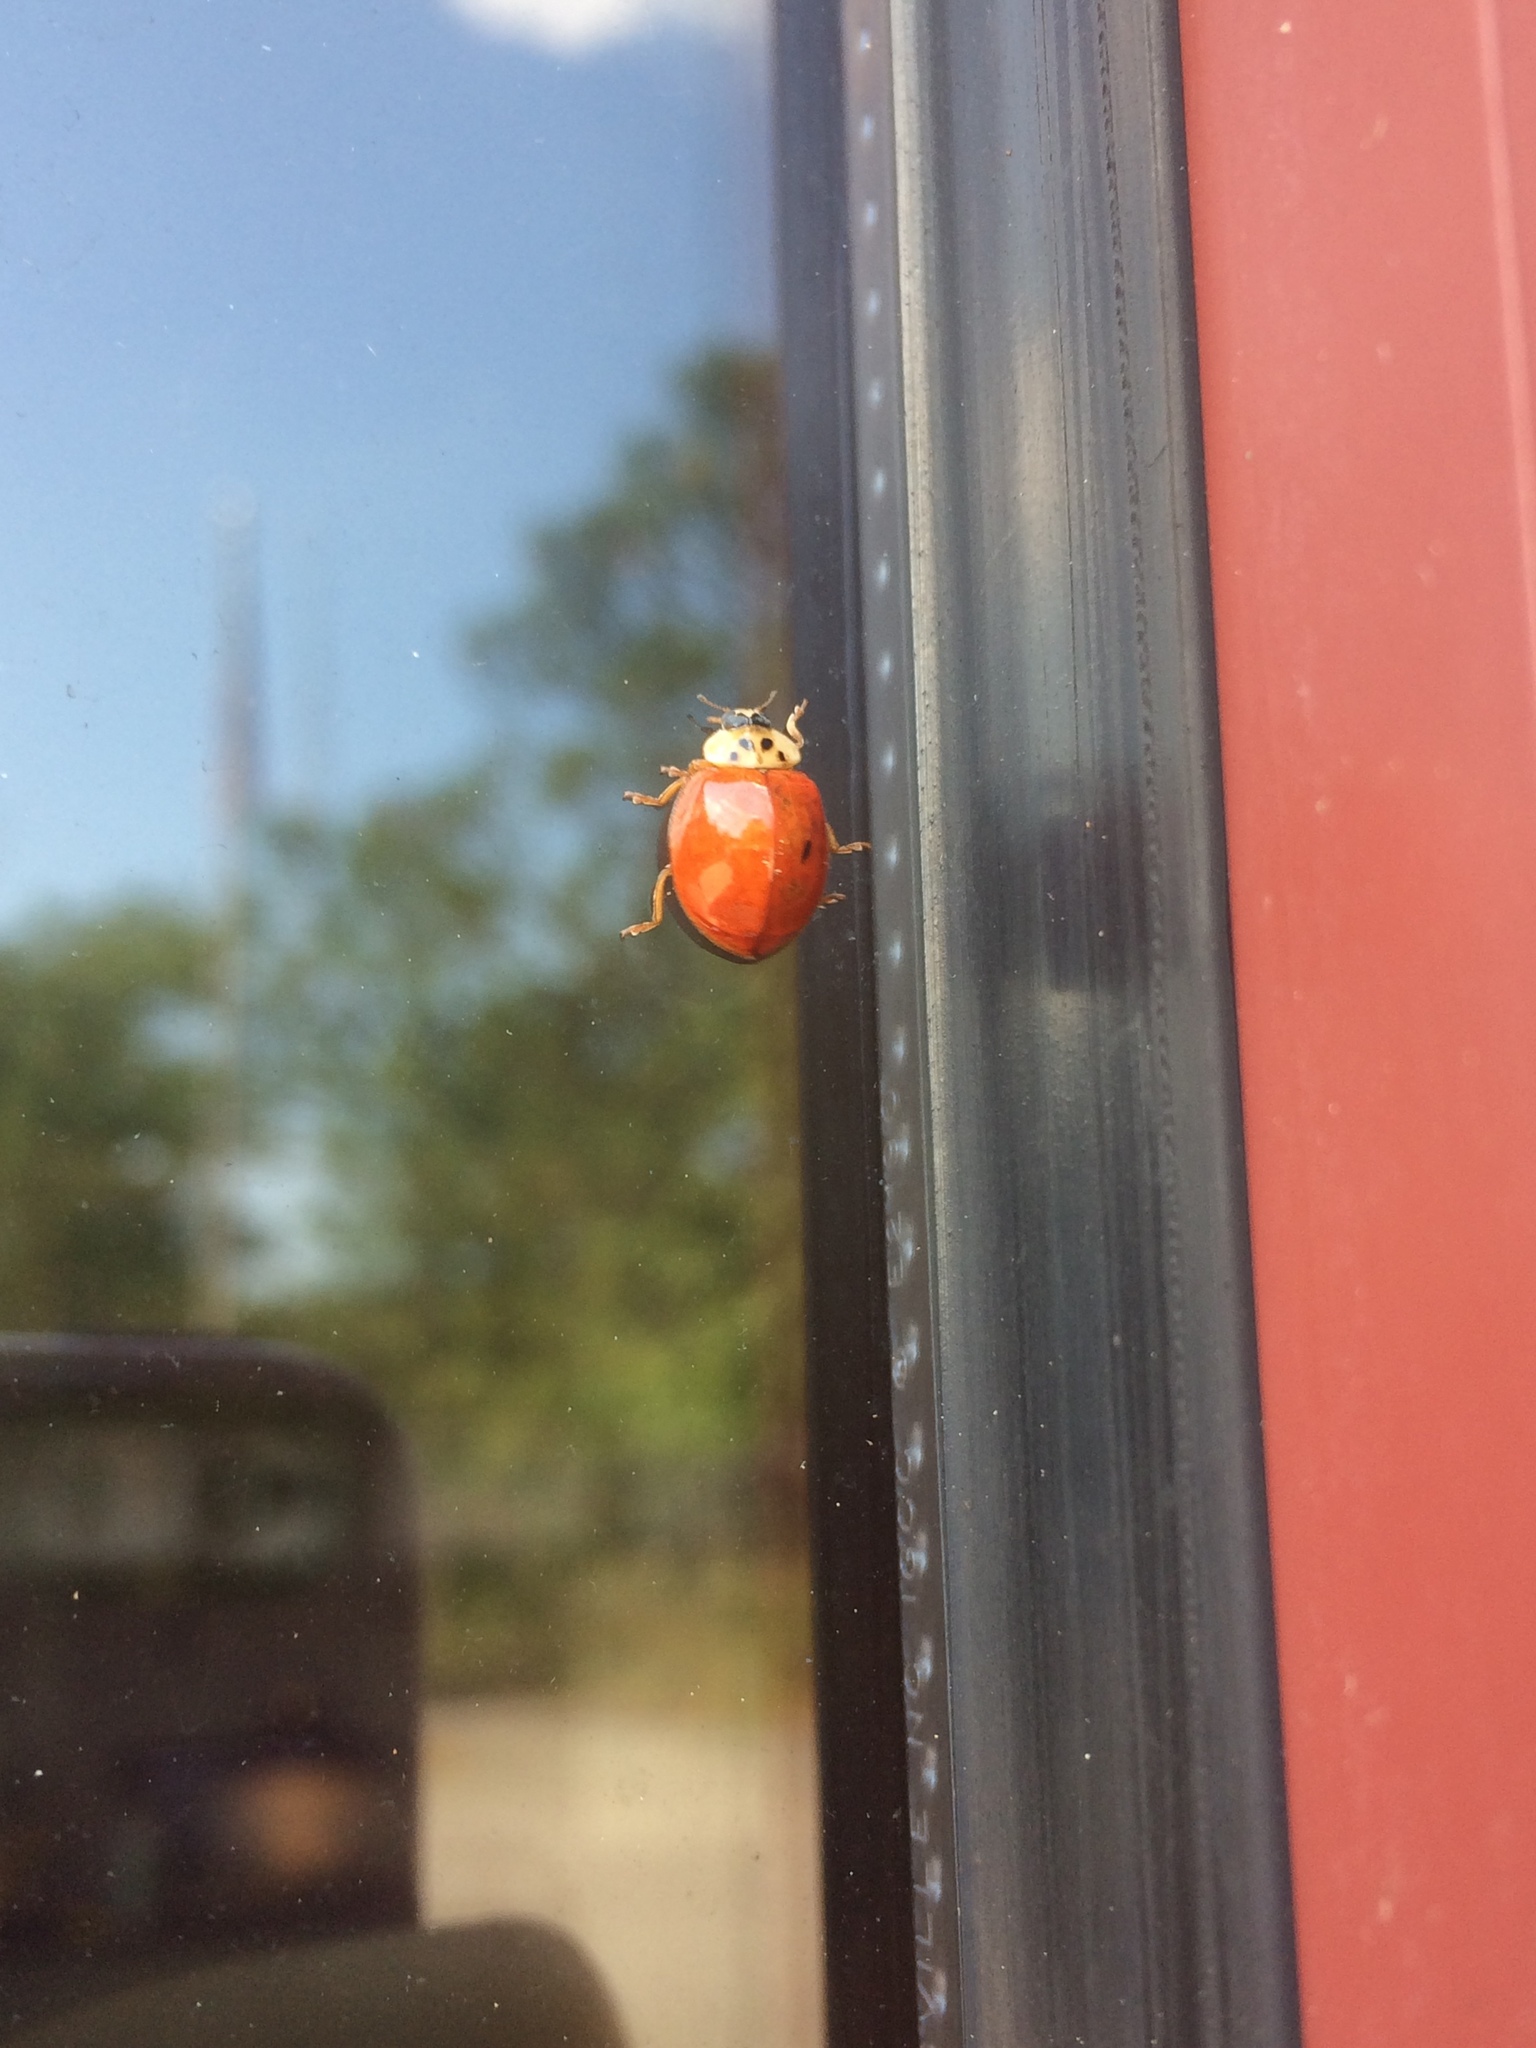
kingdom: Animalia
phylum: Arthropoda
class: Insecta
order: Coleoptera
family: Coccinellidae
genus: Harmonia
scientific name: Harmonia axyridis
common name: Harlequin ladybird
